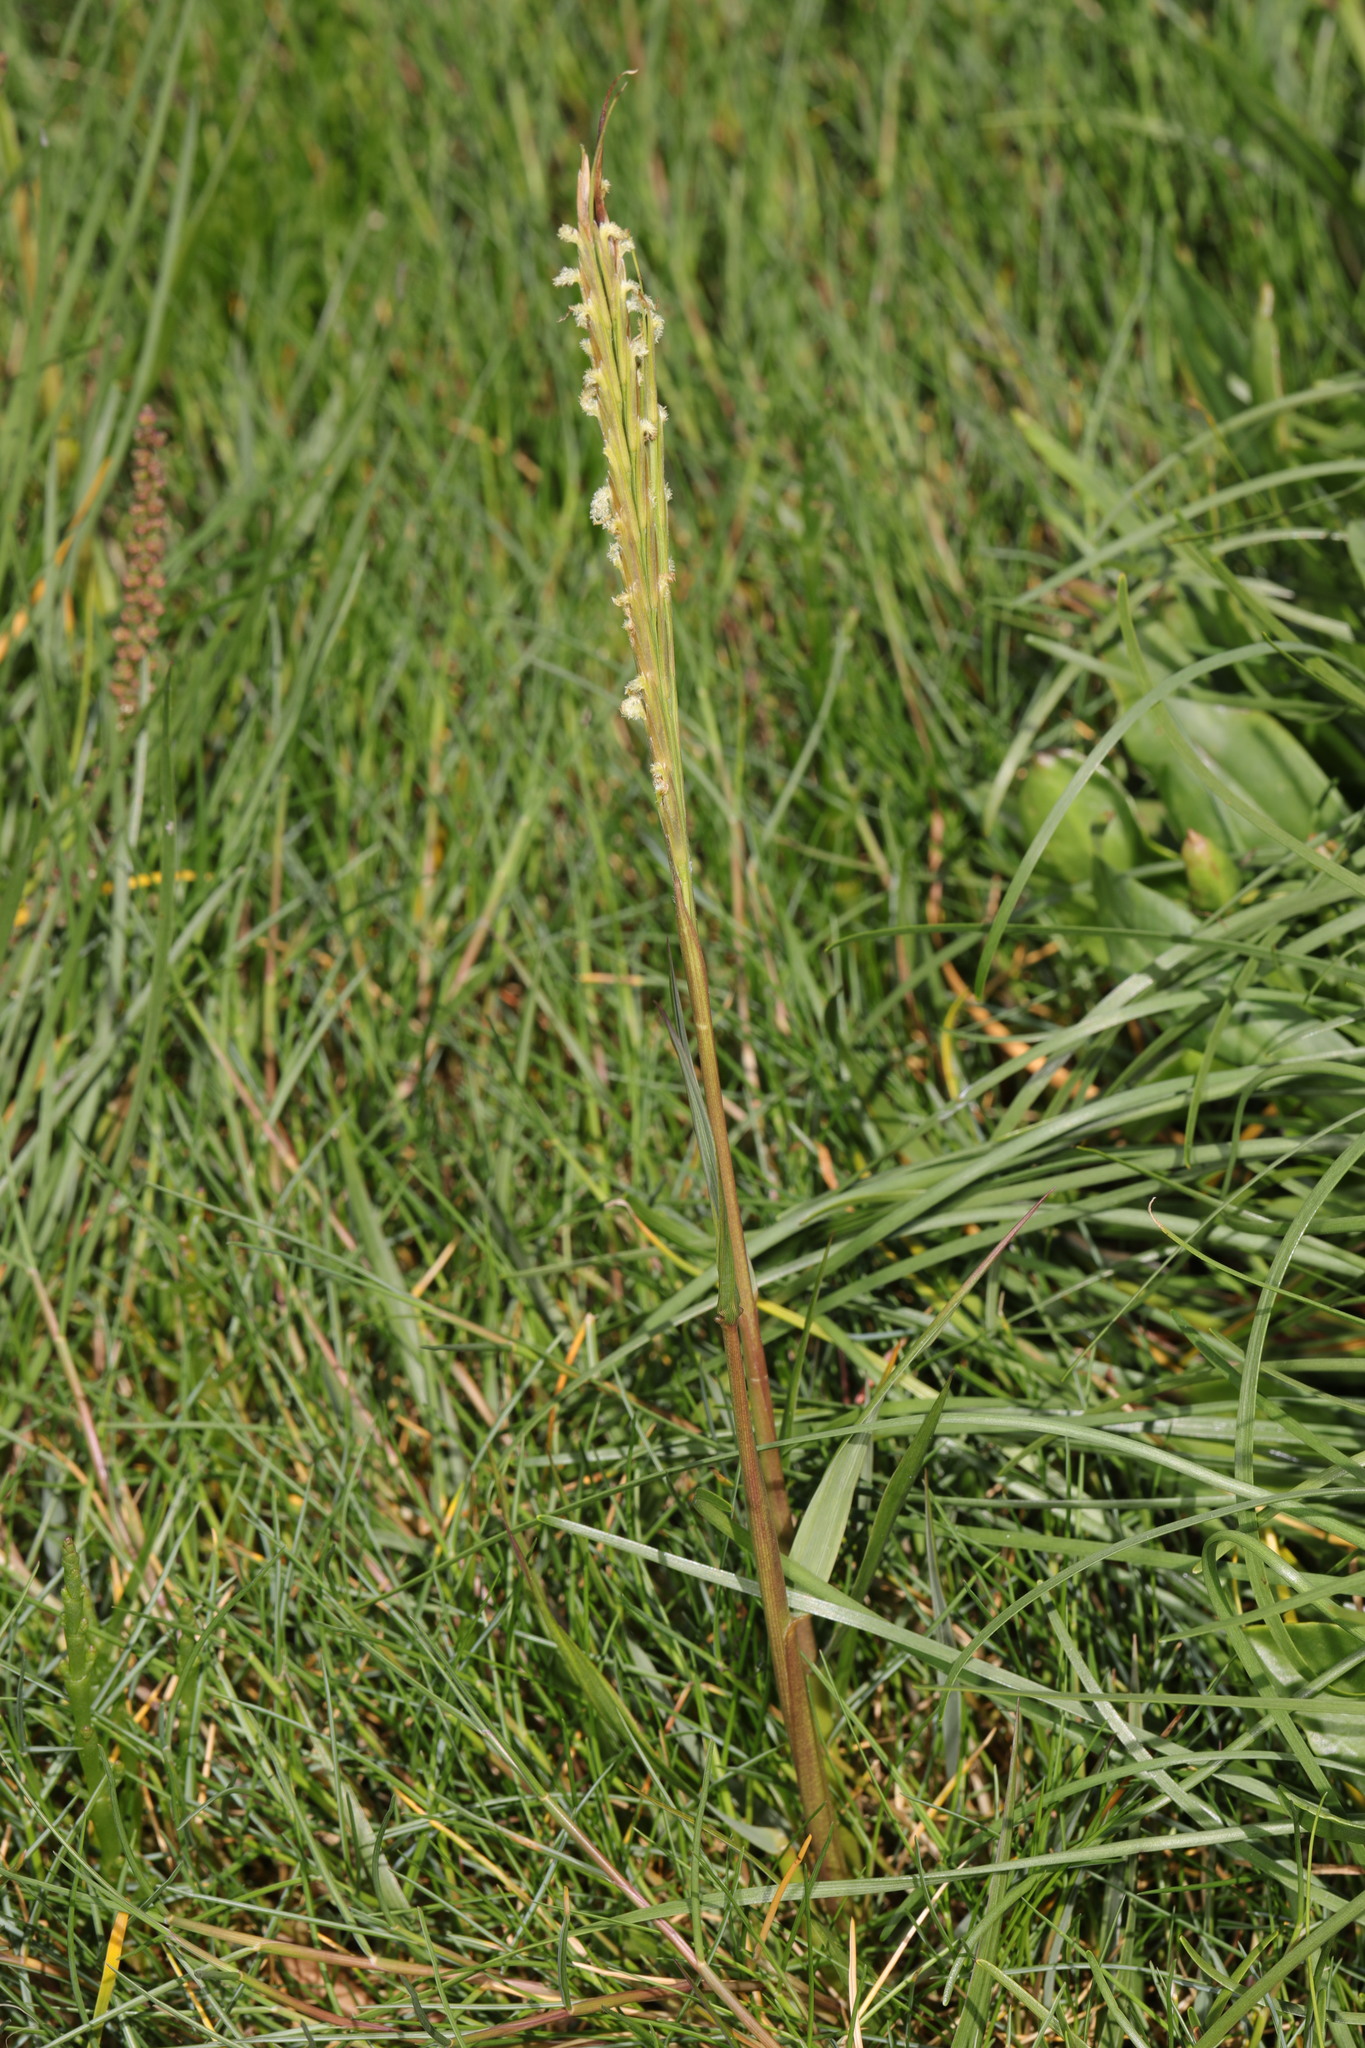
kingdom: Plantae
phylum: Tracheophyta
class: Liliopsida
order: Poales
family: Poaceae
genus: Sporobolus
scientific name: Sporobolus anglicus
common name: English cordgrass
